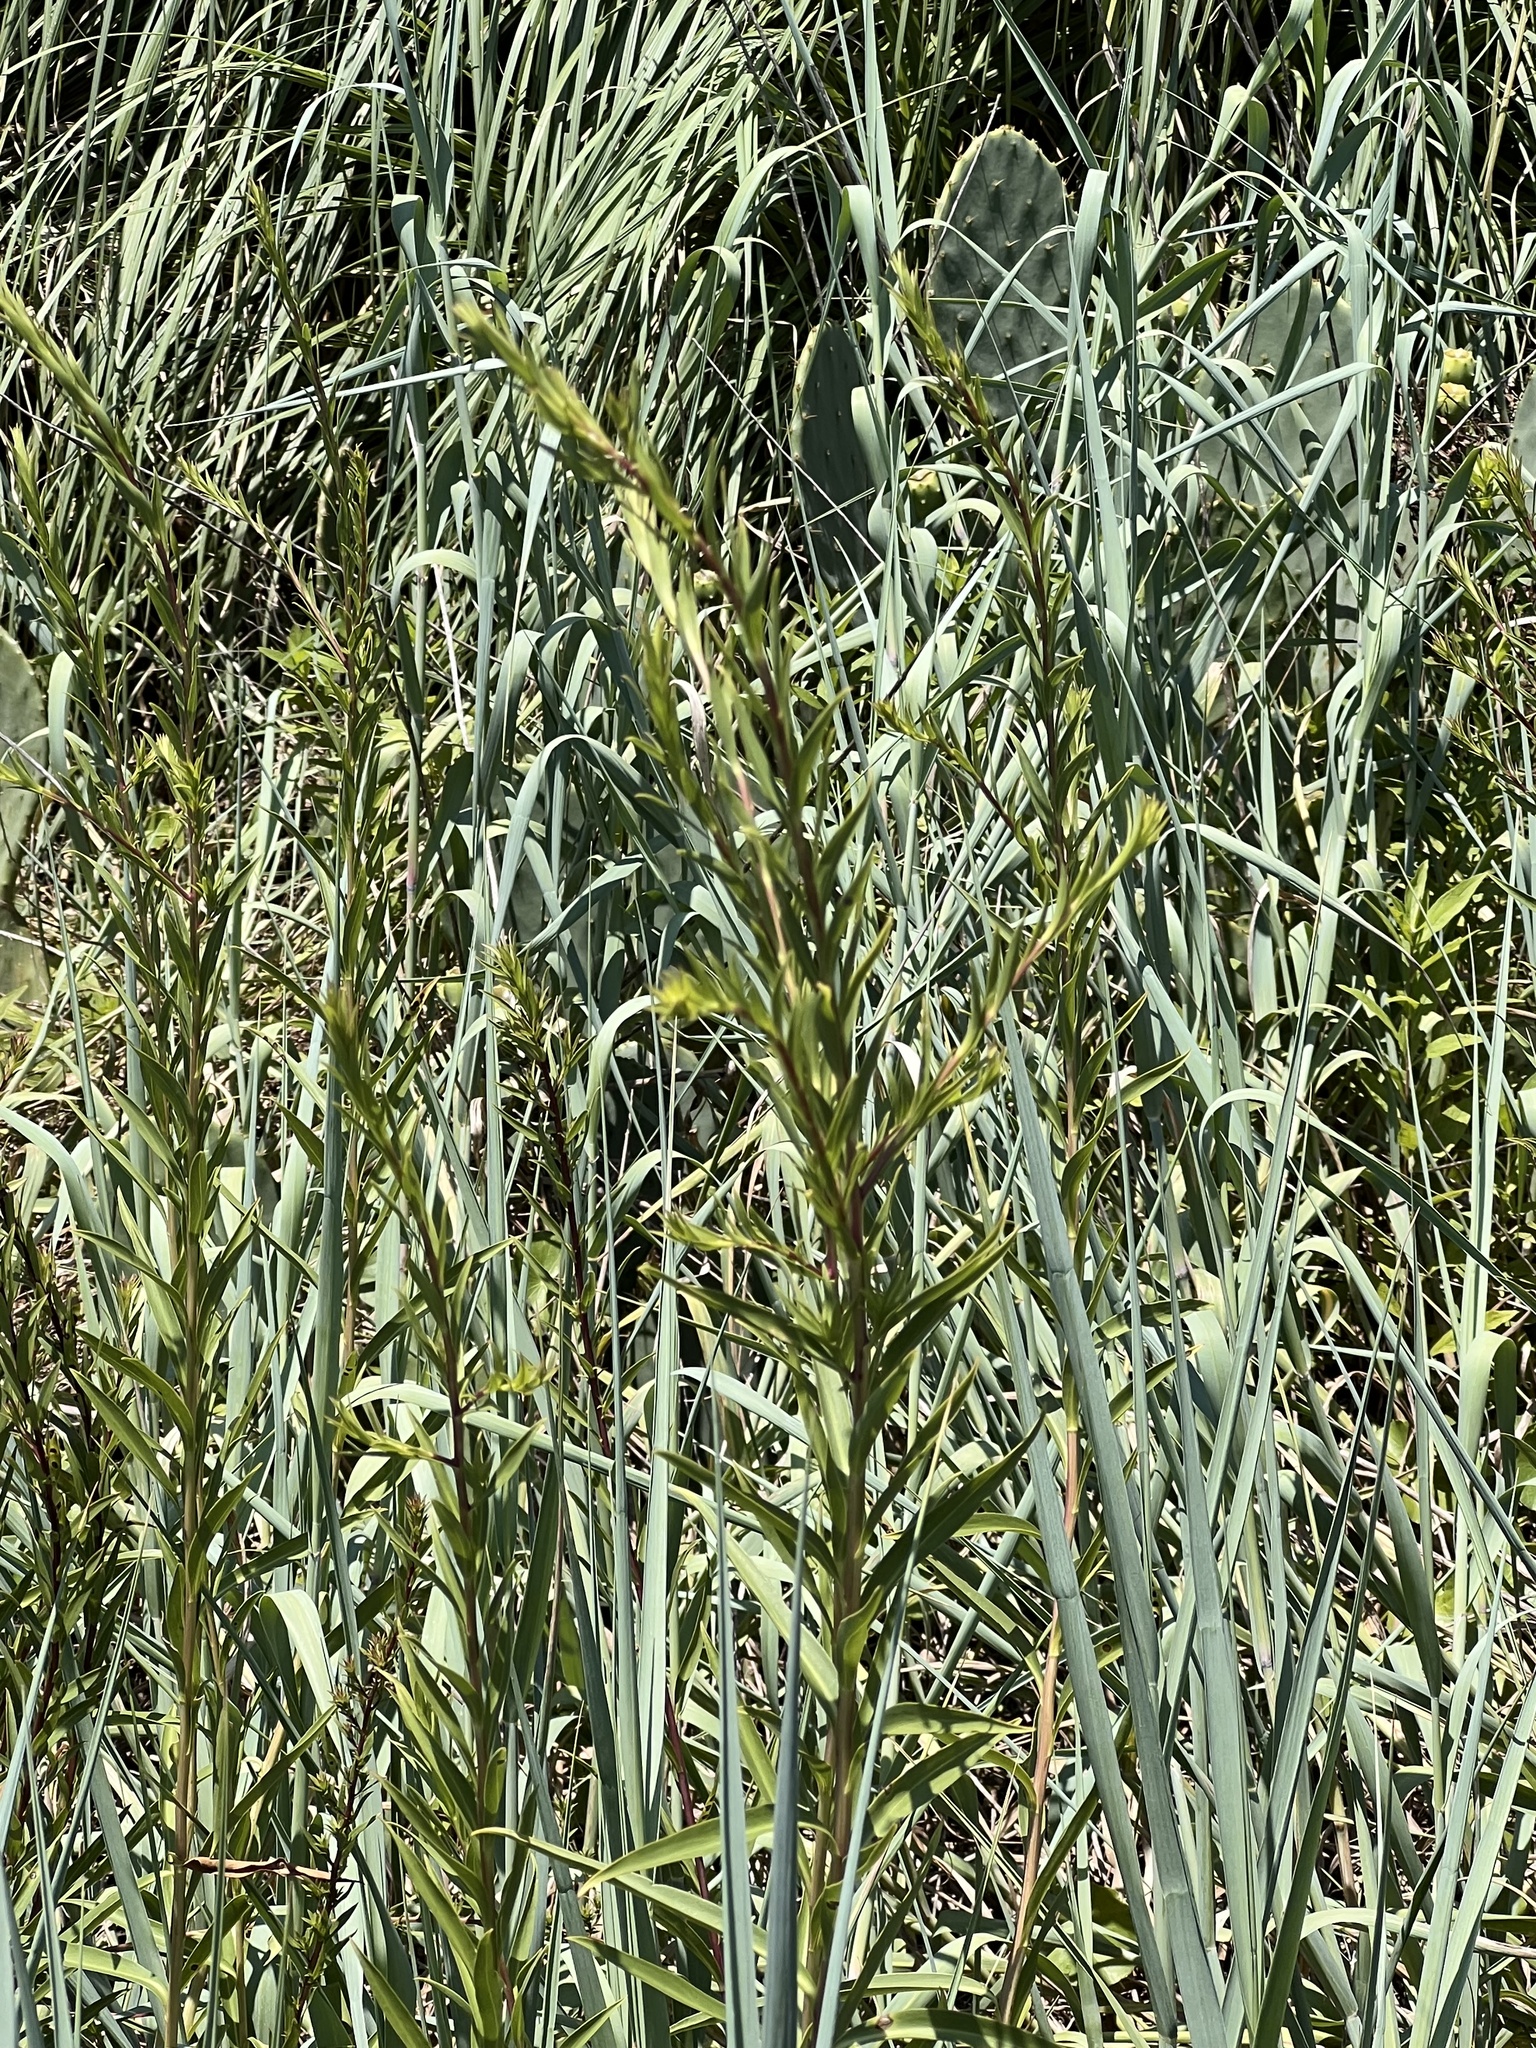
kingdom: Plantae
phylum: Tracheophyta
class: Magnoliopsida
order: Asterales
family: Asteraceae
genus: Solidago
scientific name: Solidago mexicana
